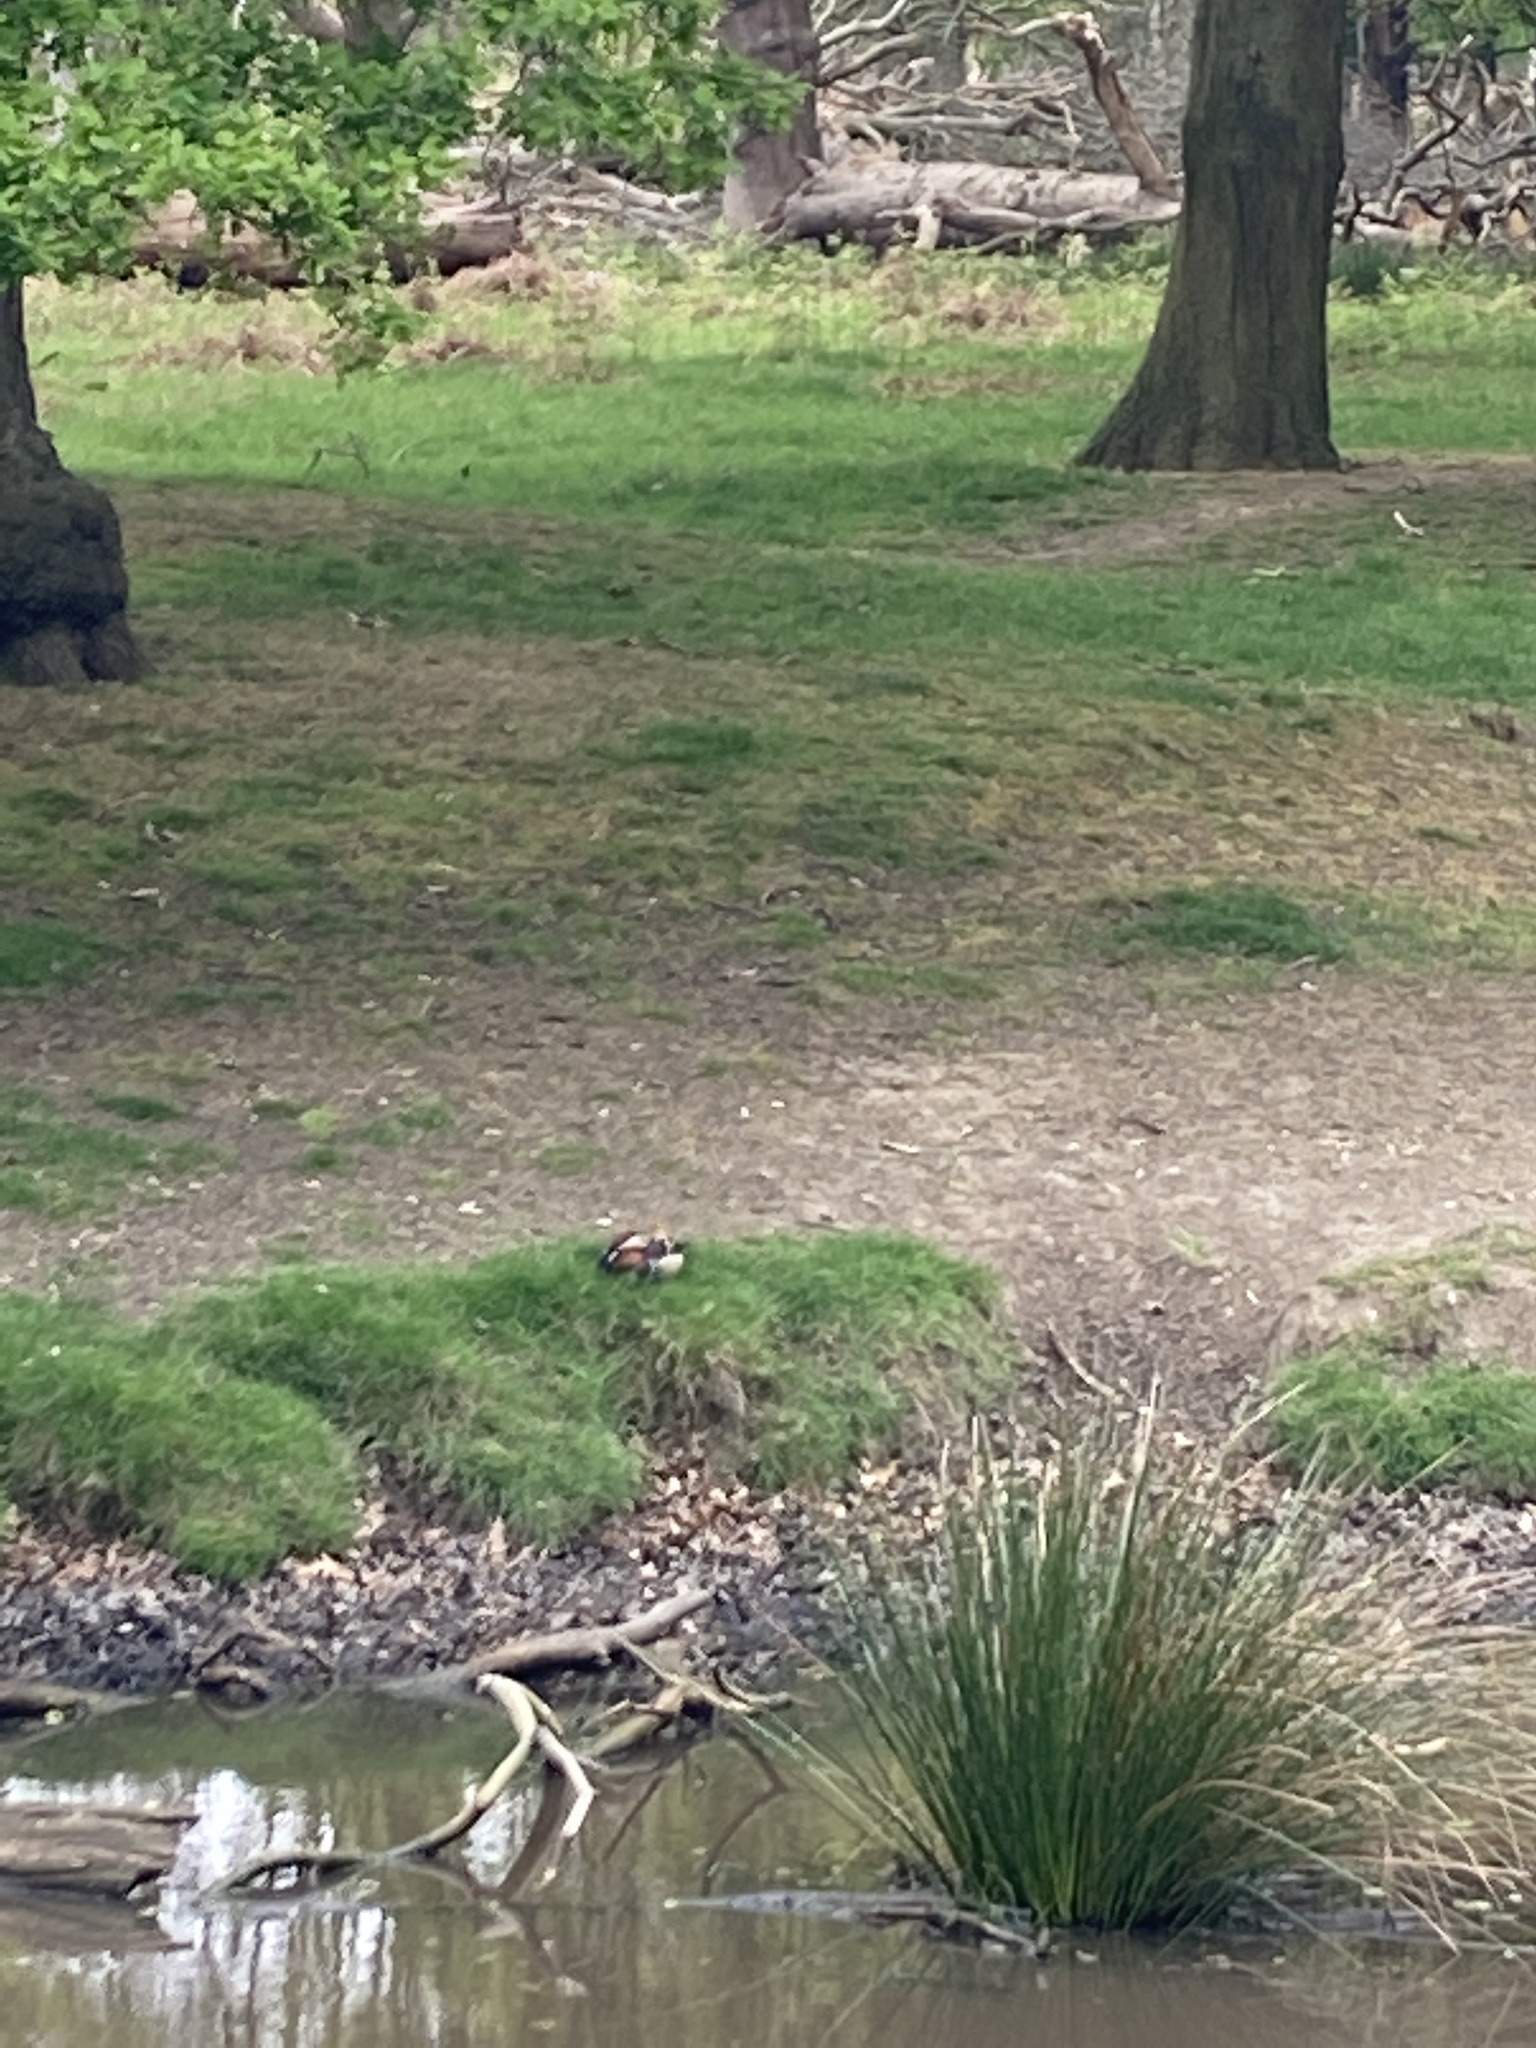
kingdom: Animalia
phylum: Chordata
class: Aves
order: Anseriformes
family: Anatidae
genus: Aix
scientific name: Aix galericulata
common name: Mandarin duck
